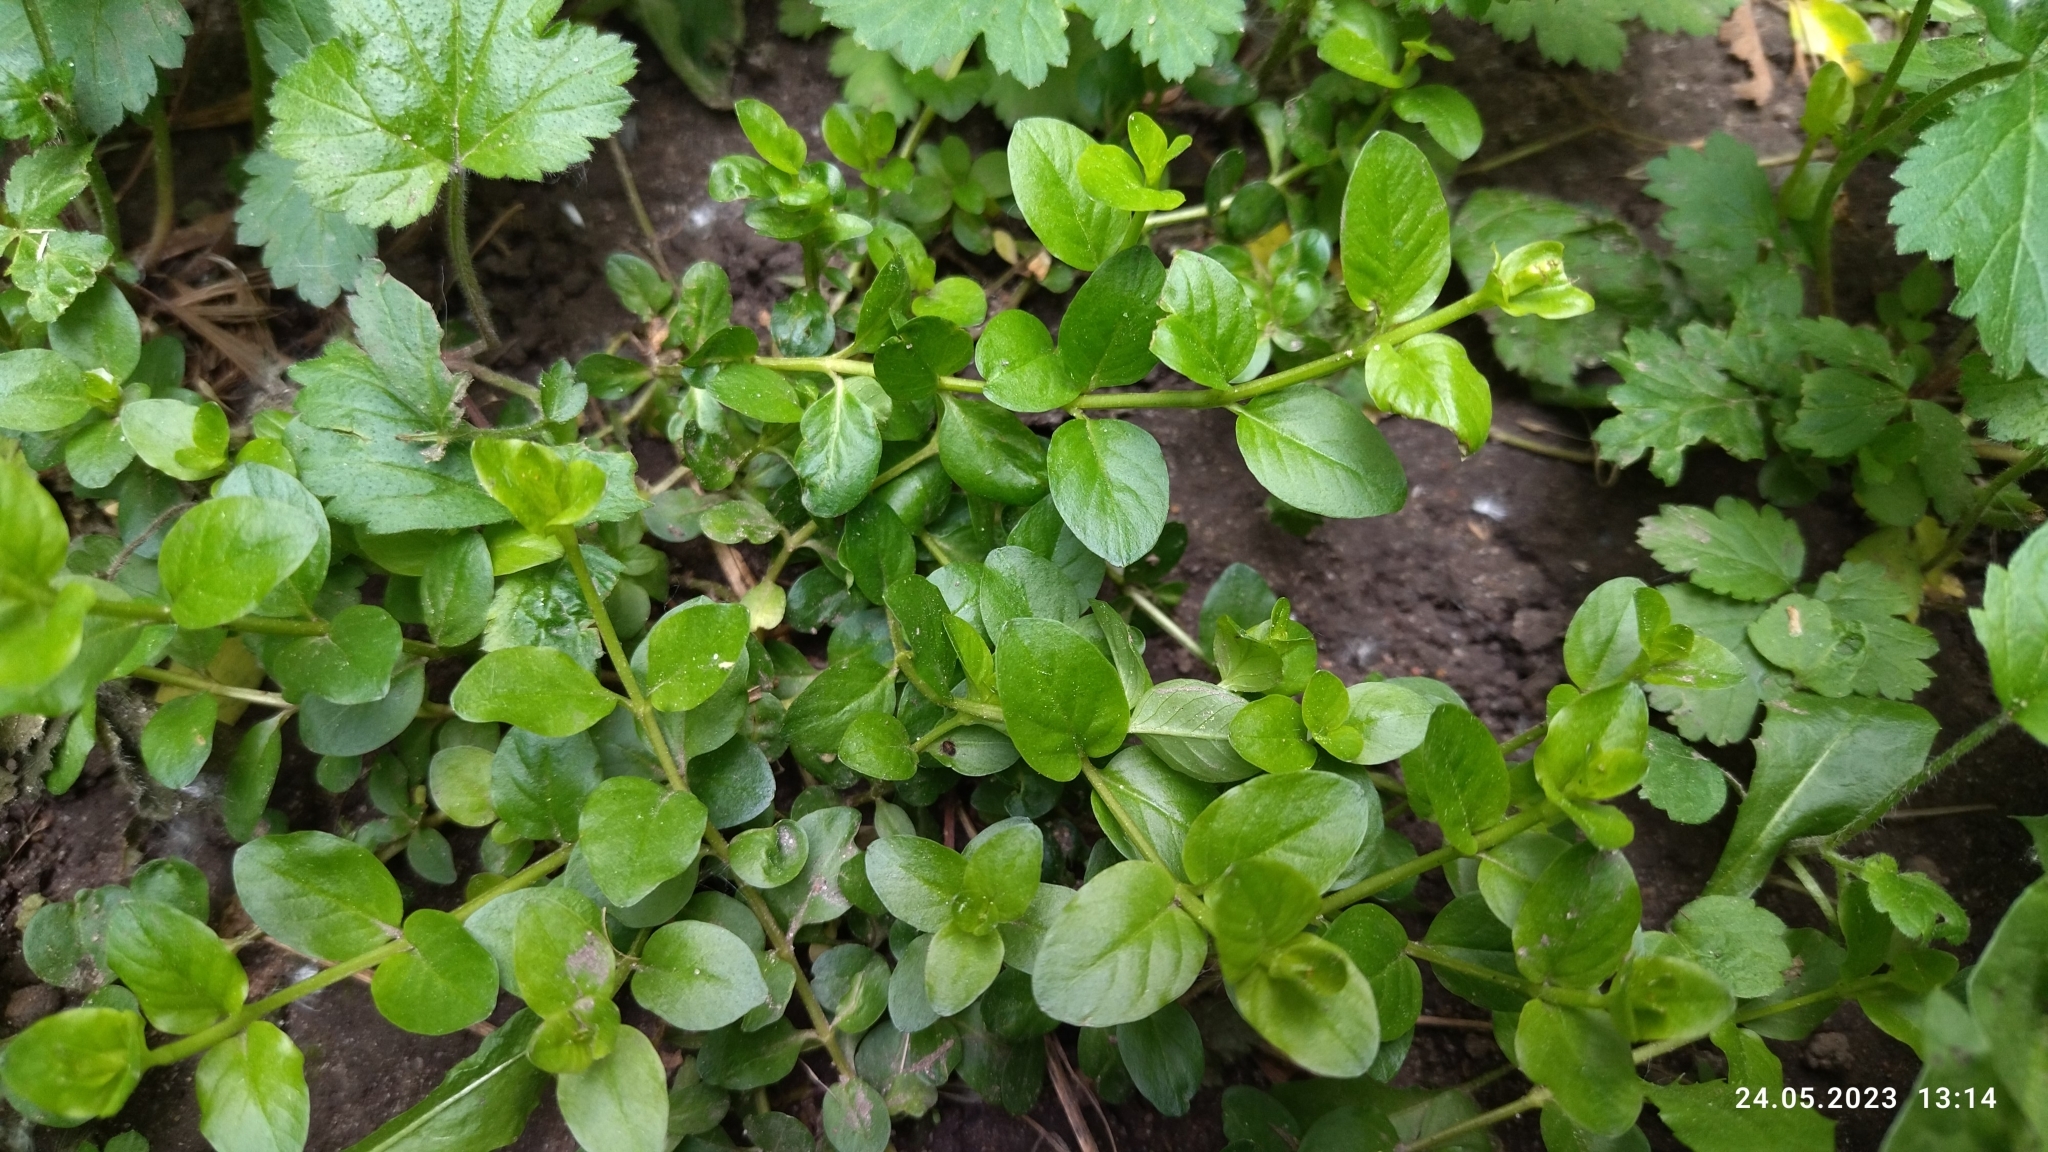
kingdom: Plantae
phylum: Tracheophyta
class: Magnoliopsida
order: Ericales
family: Primulaceae
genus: Lysimachia
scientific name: Lysimachia nummularia
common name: Moneywort
